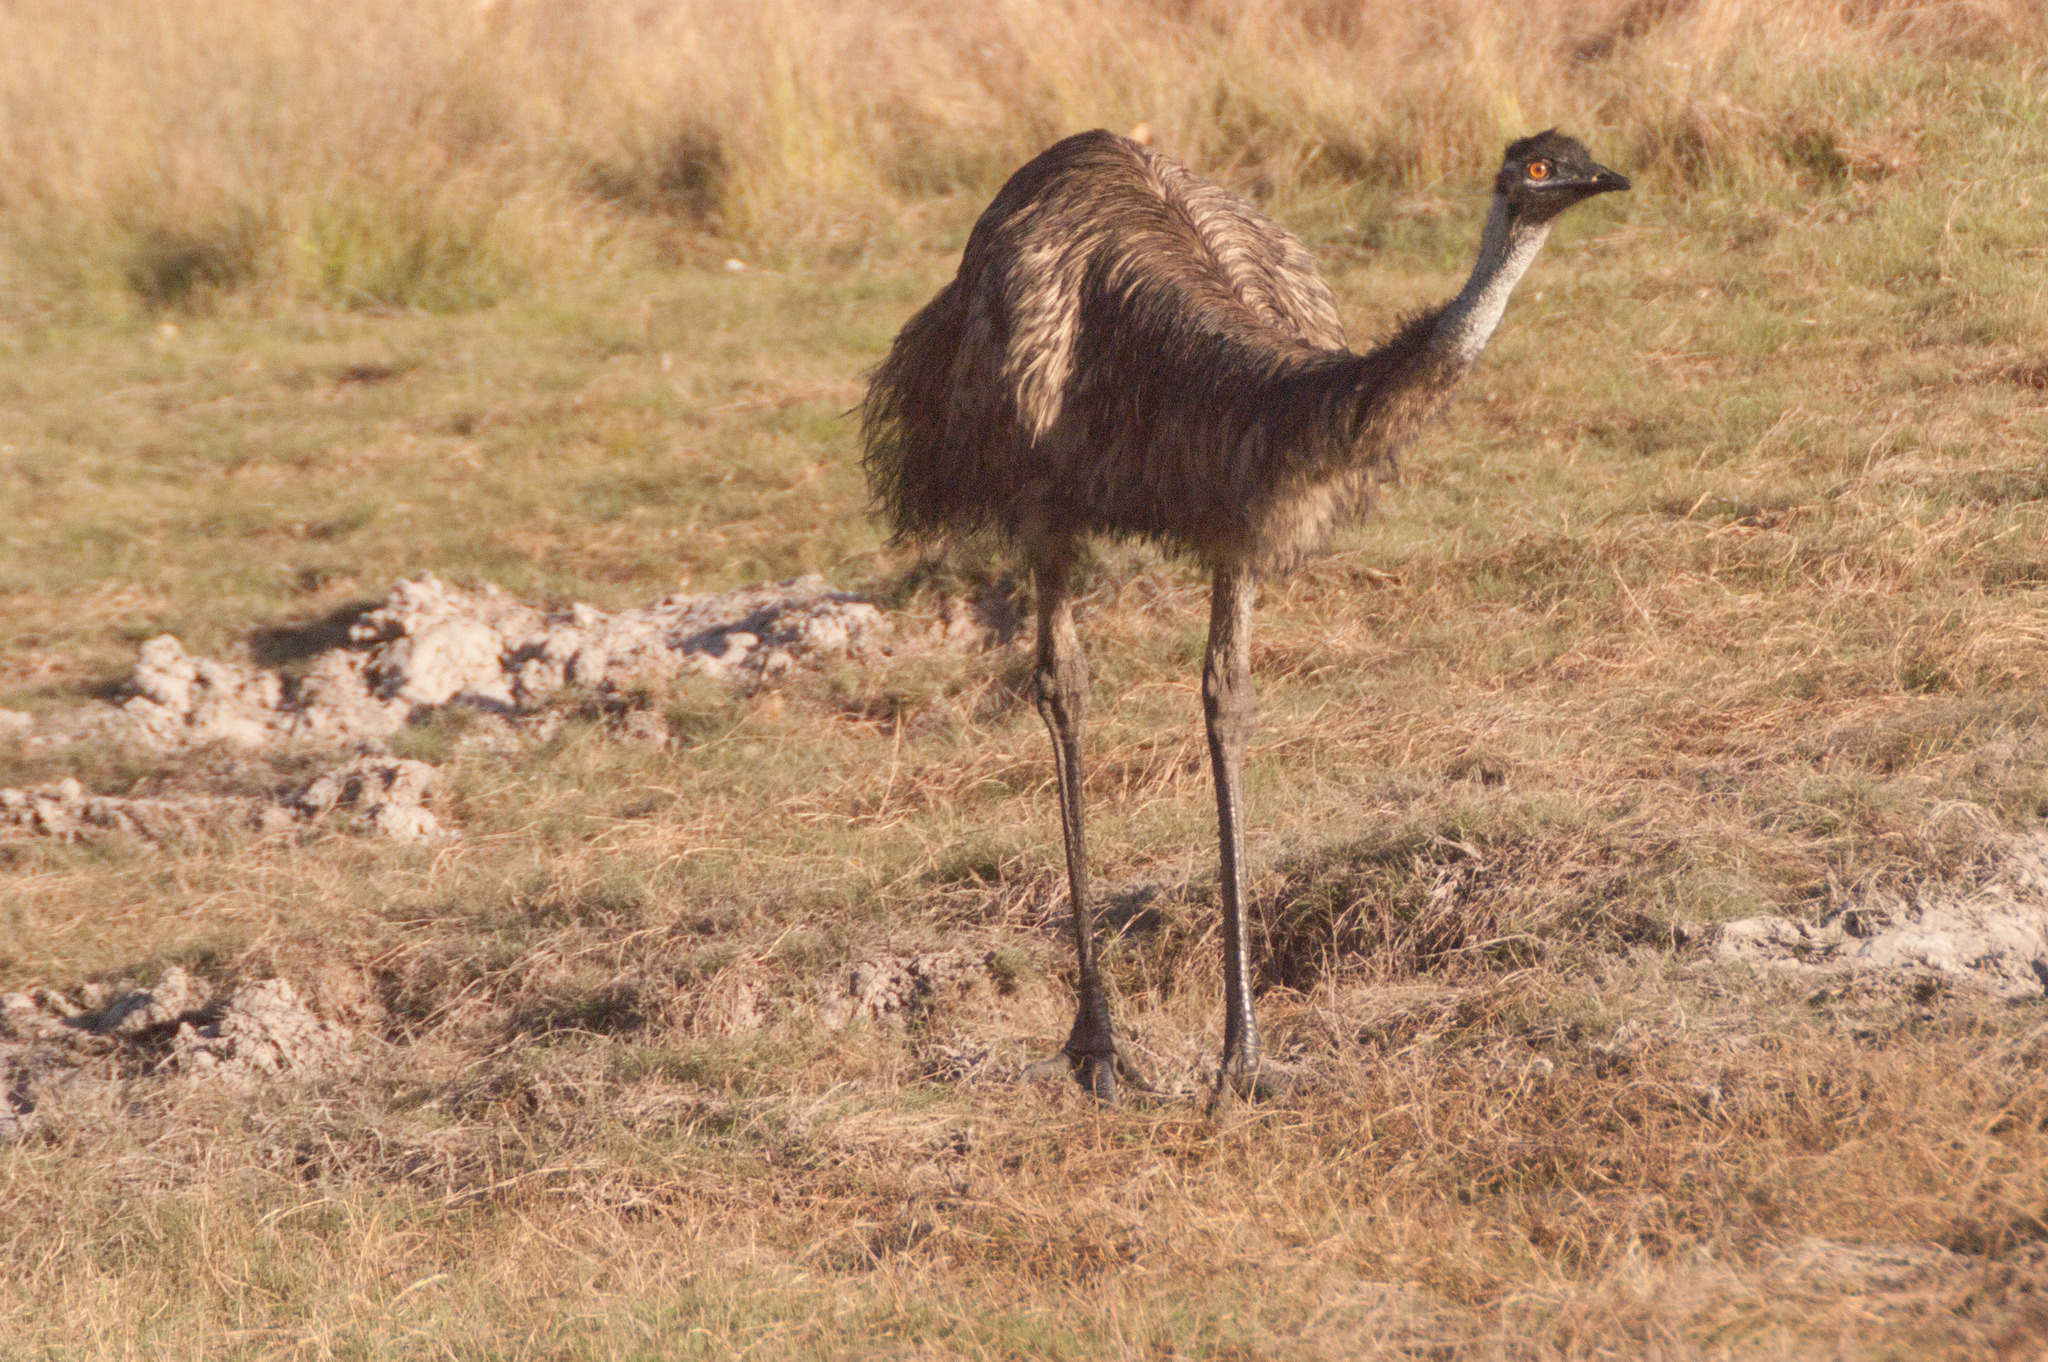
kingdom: Animalia
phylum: Chordata
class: Aves
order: Casuariiformes
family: Dromaiidae
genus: Dromaius
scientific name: Dromaius novaehollandiae
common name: Emu
